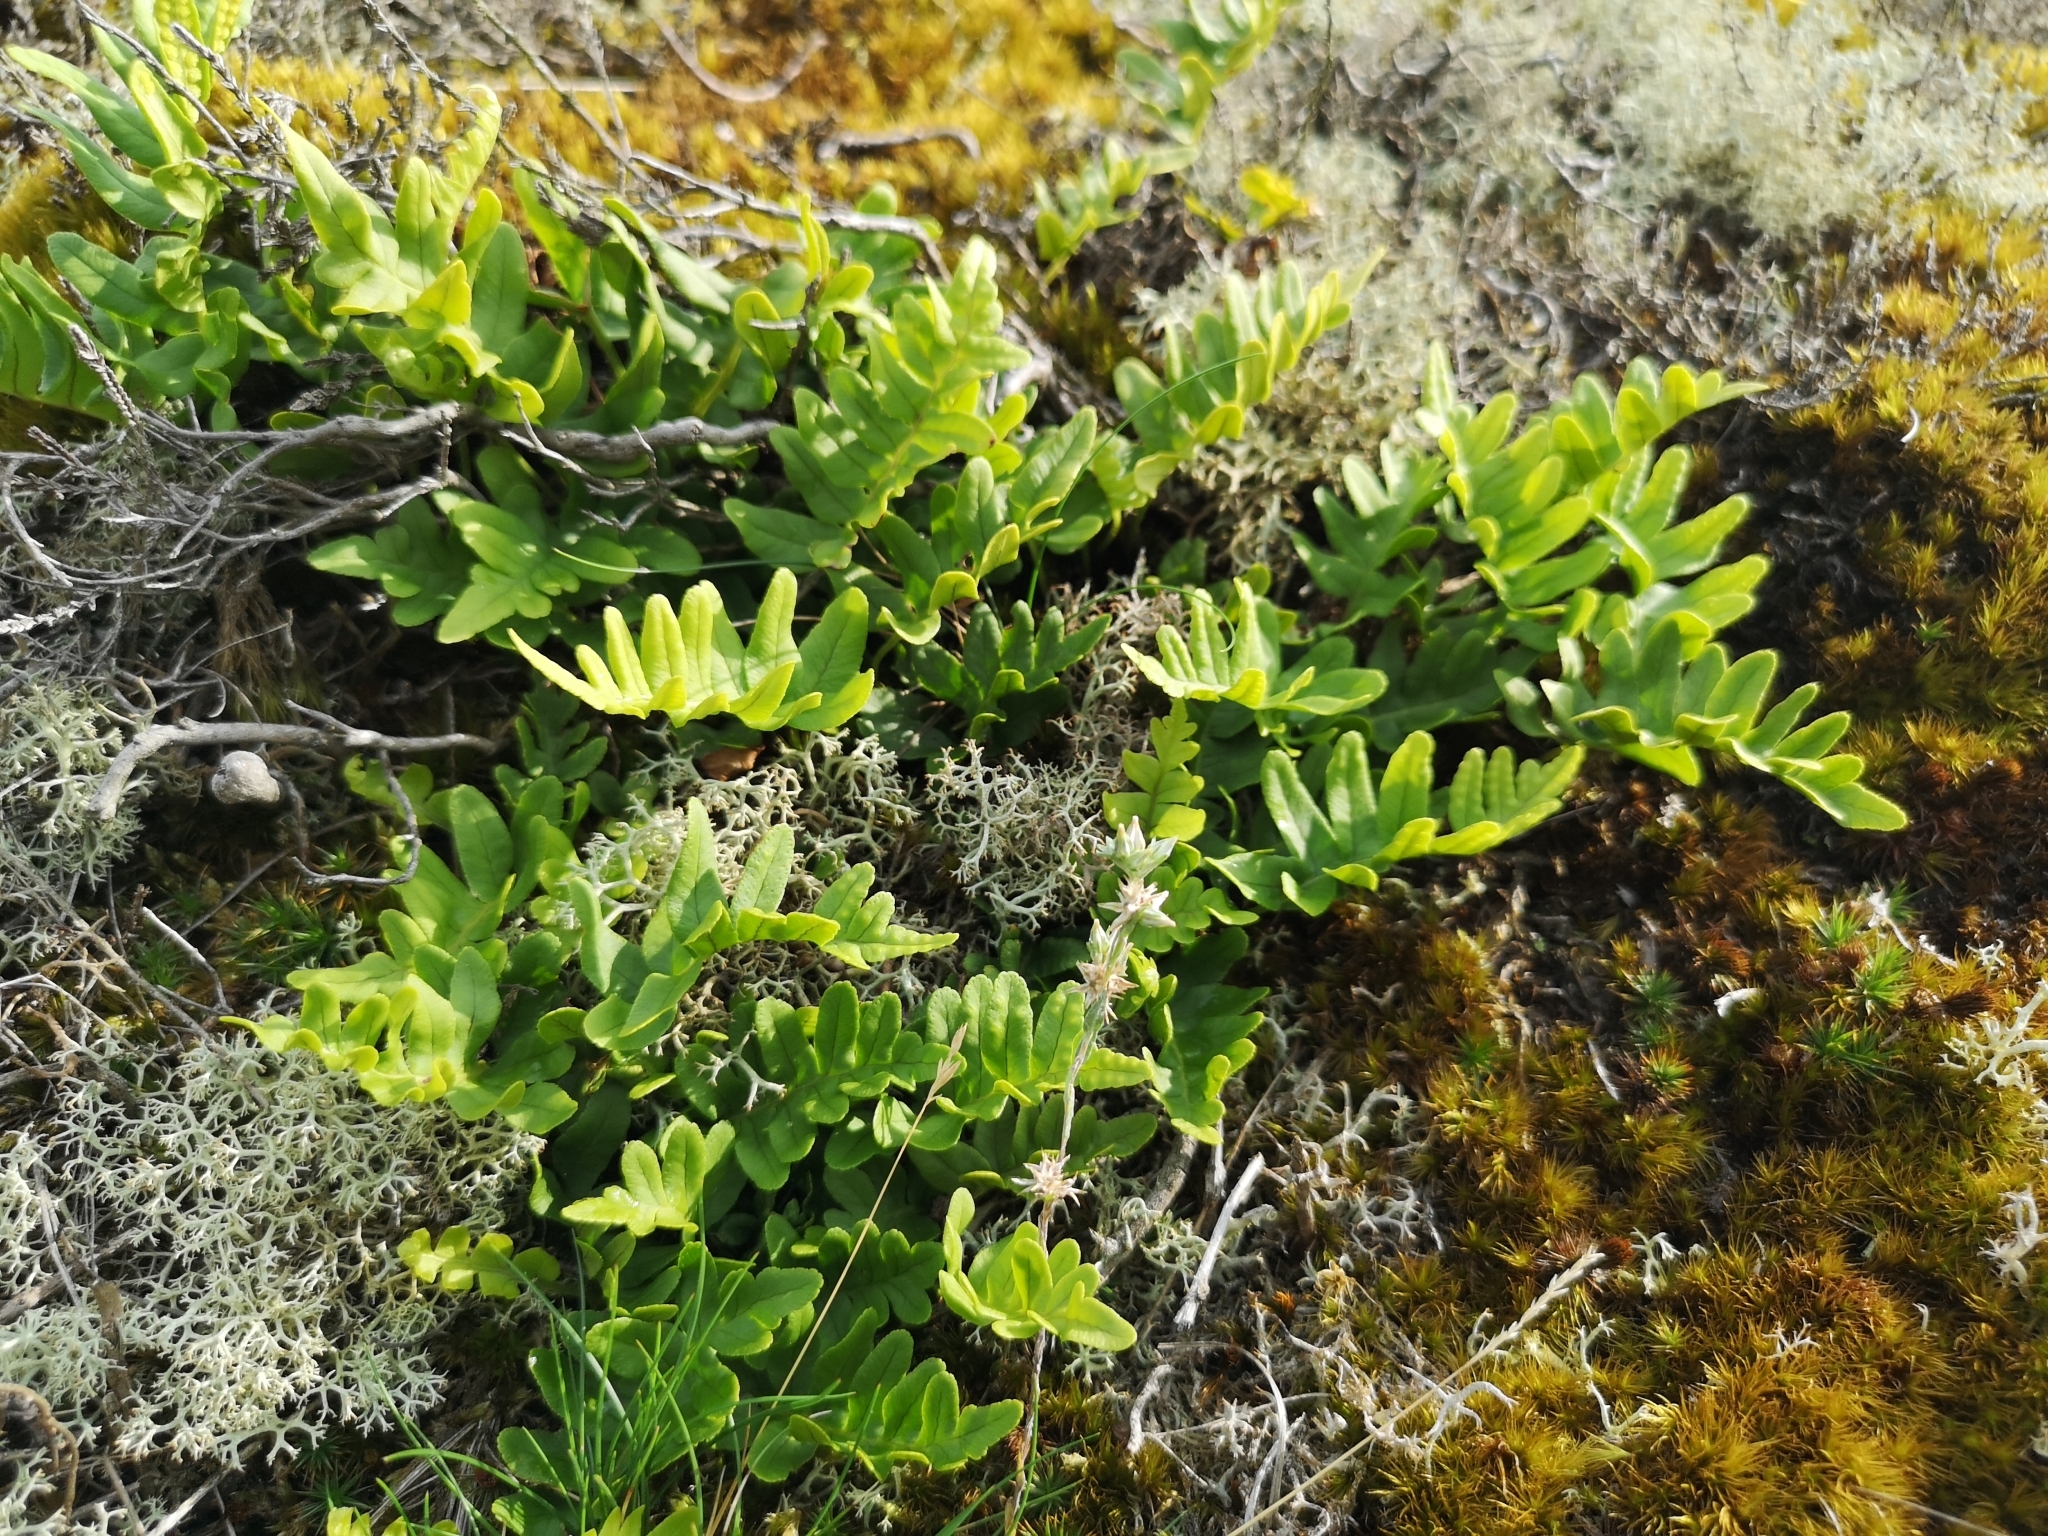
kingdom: Plantae
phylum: Tracheophyta
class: Polypodiopsida
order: Polypodiales
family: Polypodiaceae
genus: Polypodium
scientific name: Polypodium vulgare
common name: Common polypody
